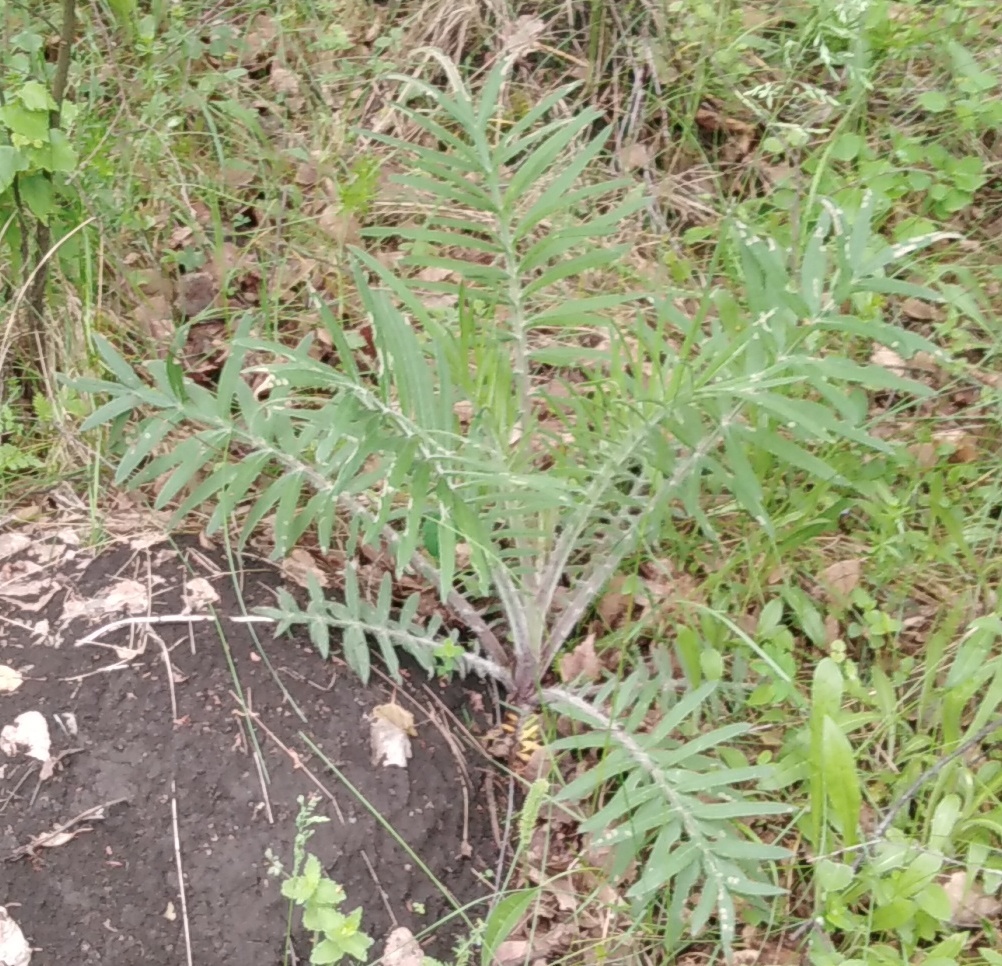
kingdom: Plantae
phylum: Tracheophyta
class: Magnoliopsida
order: Asterales
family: Asteraceae
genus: Lophiolepis
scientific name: Lophiolepis decussata
